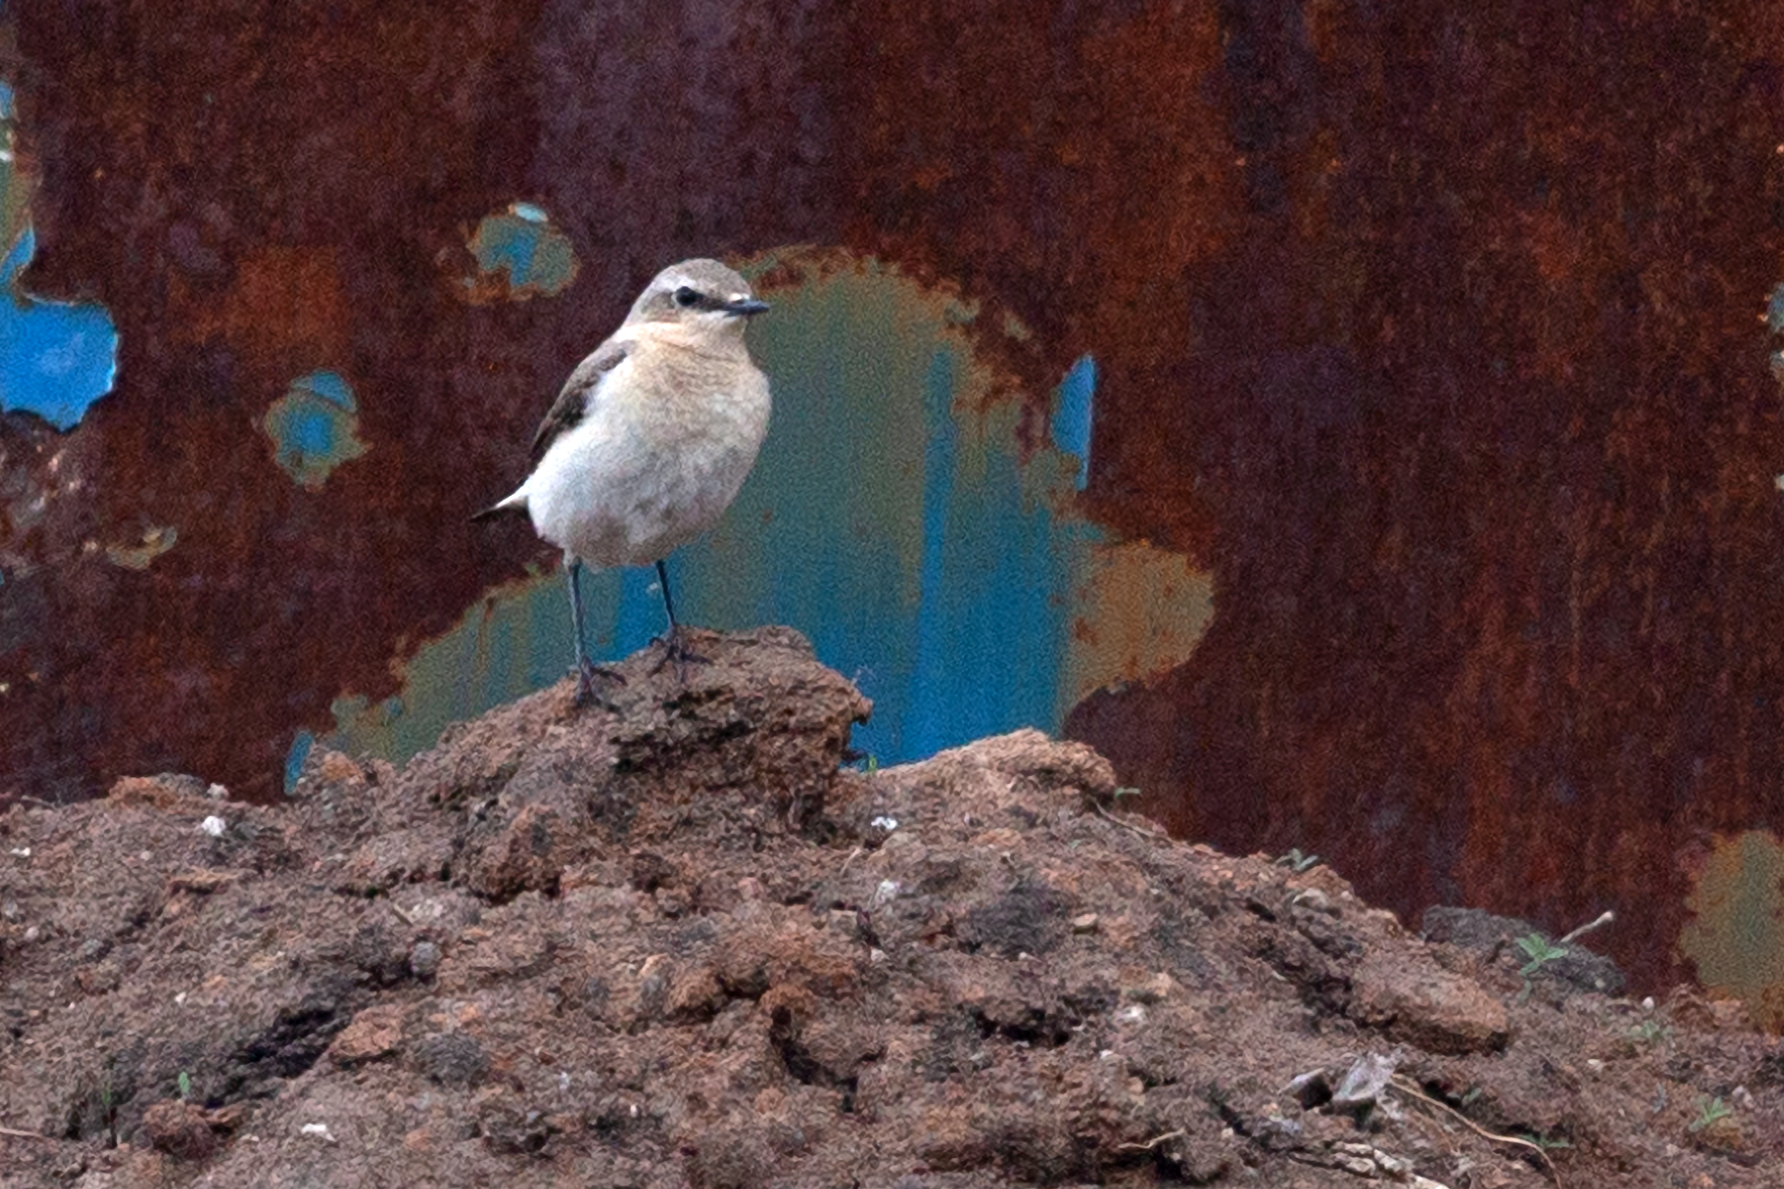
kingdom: Animalia
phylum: Chordata
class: Aves
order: Passeriformes
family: Muscicapidae
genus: Oenanthe
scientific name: Oenanthe oenanthe
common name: Northern wheatear
